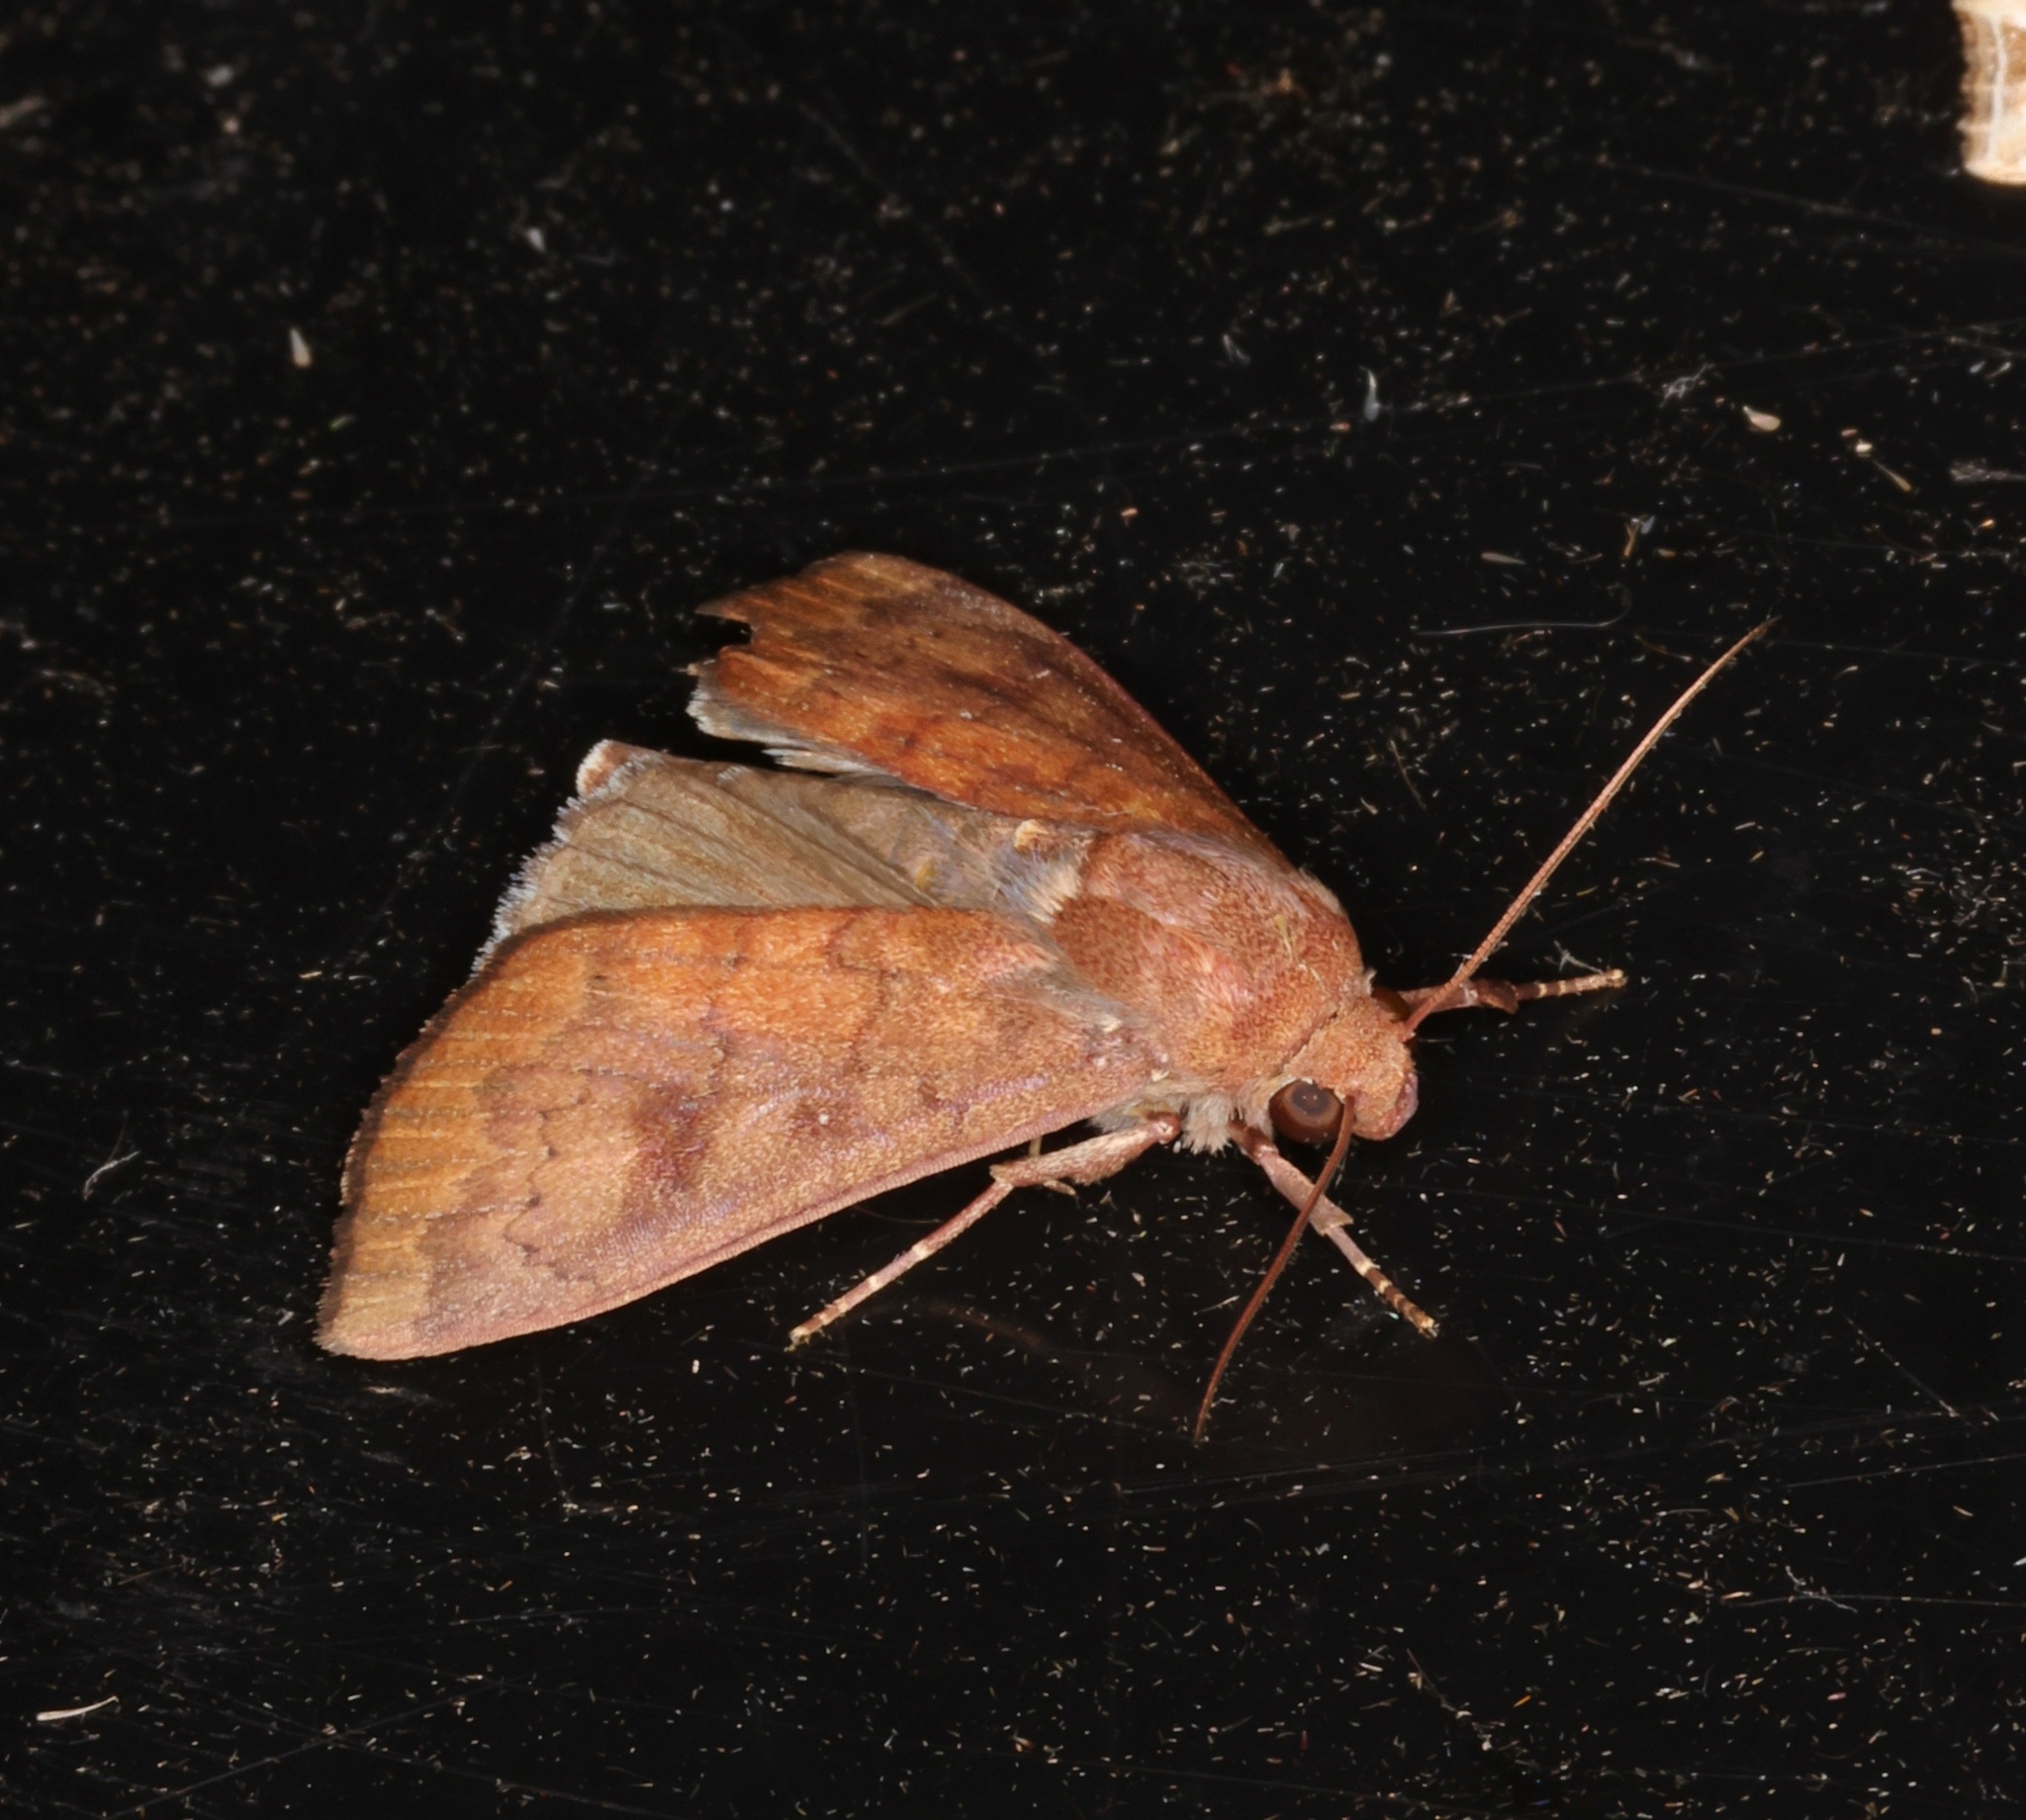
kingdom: Animalia
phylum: Arthropoda
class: Insecta
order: Lepidoptera
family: Erebidae
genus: Anomis
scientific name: Anomis figlina
